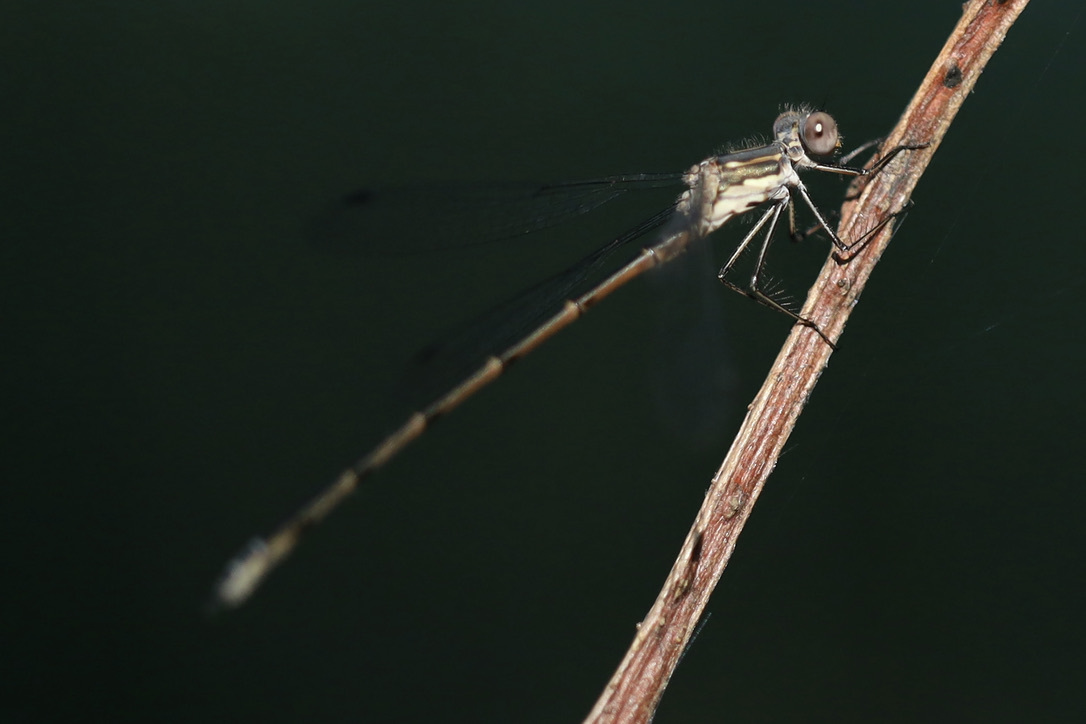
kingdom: Animalia
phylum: Arthropoda
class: Insecta
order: Odonata
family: Lestidae
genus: Lestes
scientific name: Lestes congener
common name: Spotted spreadwing
